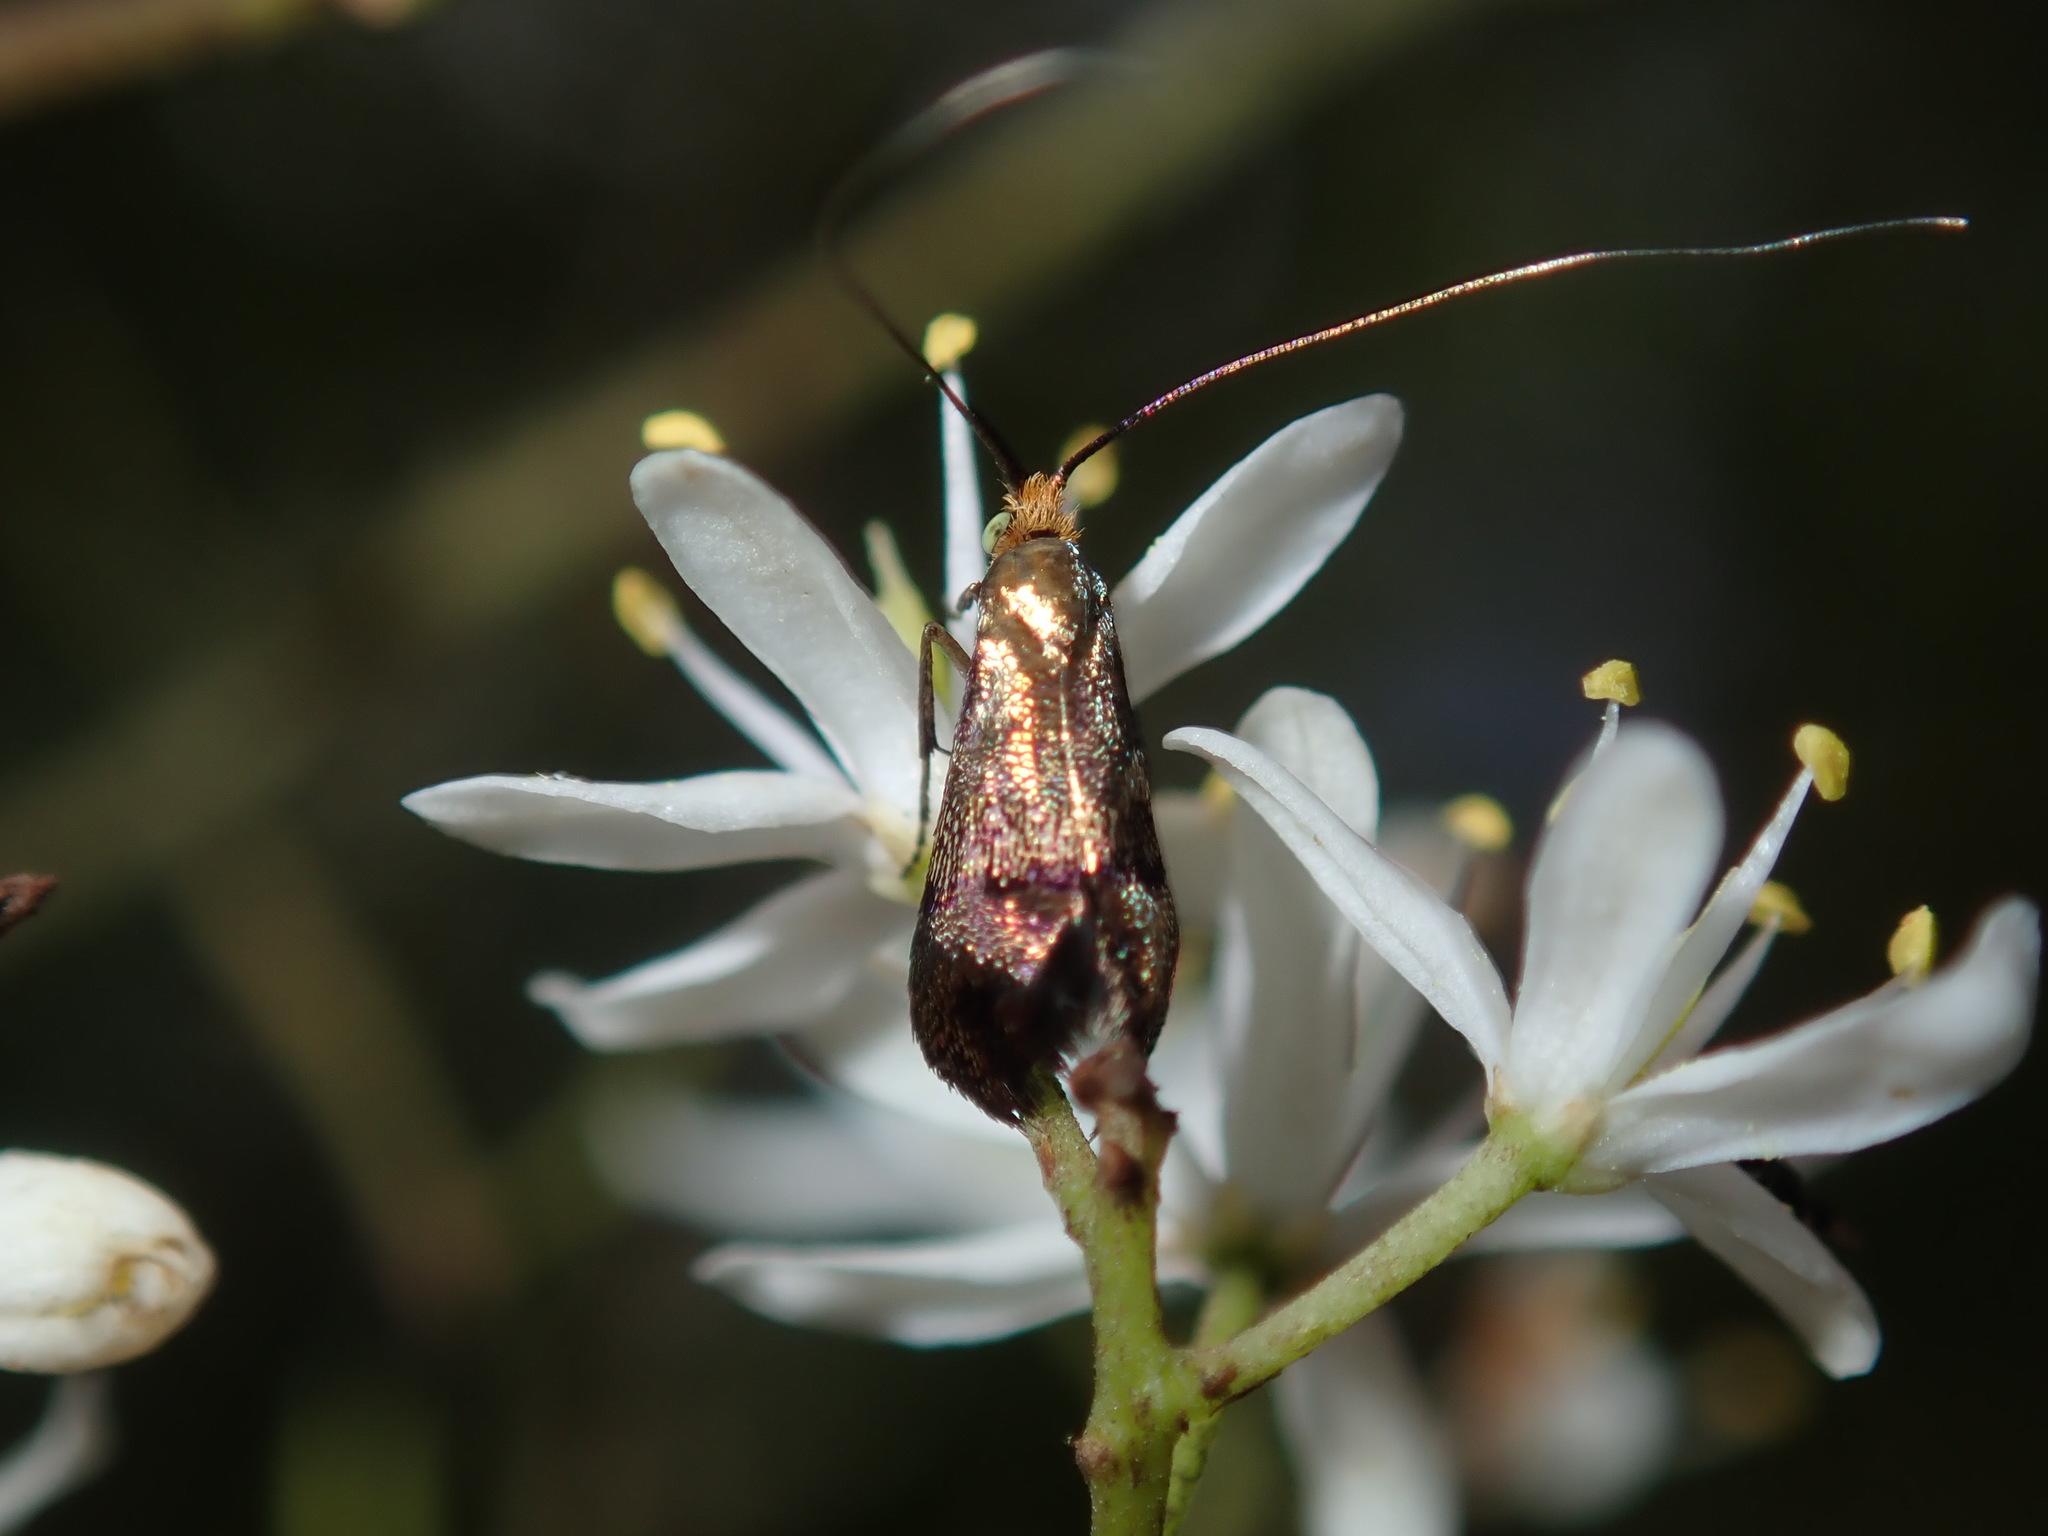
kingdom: Animalia
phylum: Arthropoda
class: Insecta
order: Lepidoptera
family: Adelidae
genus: Nemophora
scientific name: Nemophora laurella
